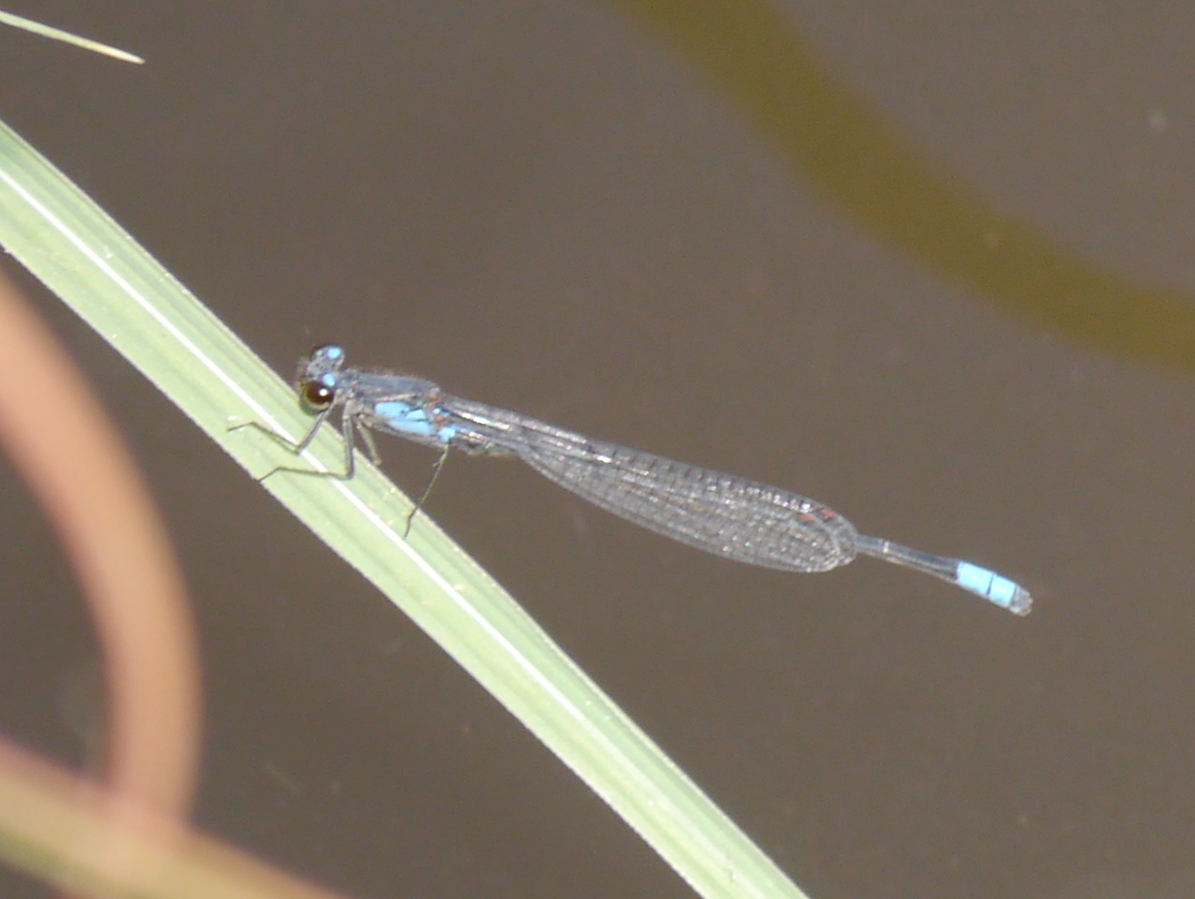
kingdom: Animalia
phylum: Arthropoda
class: Insecta
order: Odonata
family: Coenagrionidae
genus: Pseudagrion
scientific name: Pseudagrion sudanicum
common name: Blue-sided sprite
